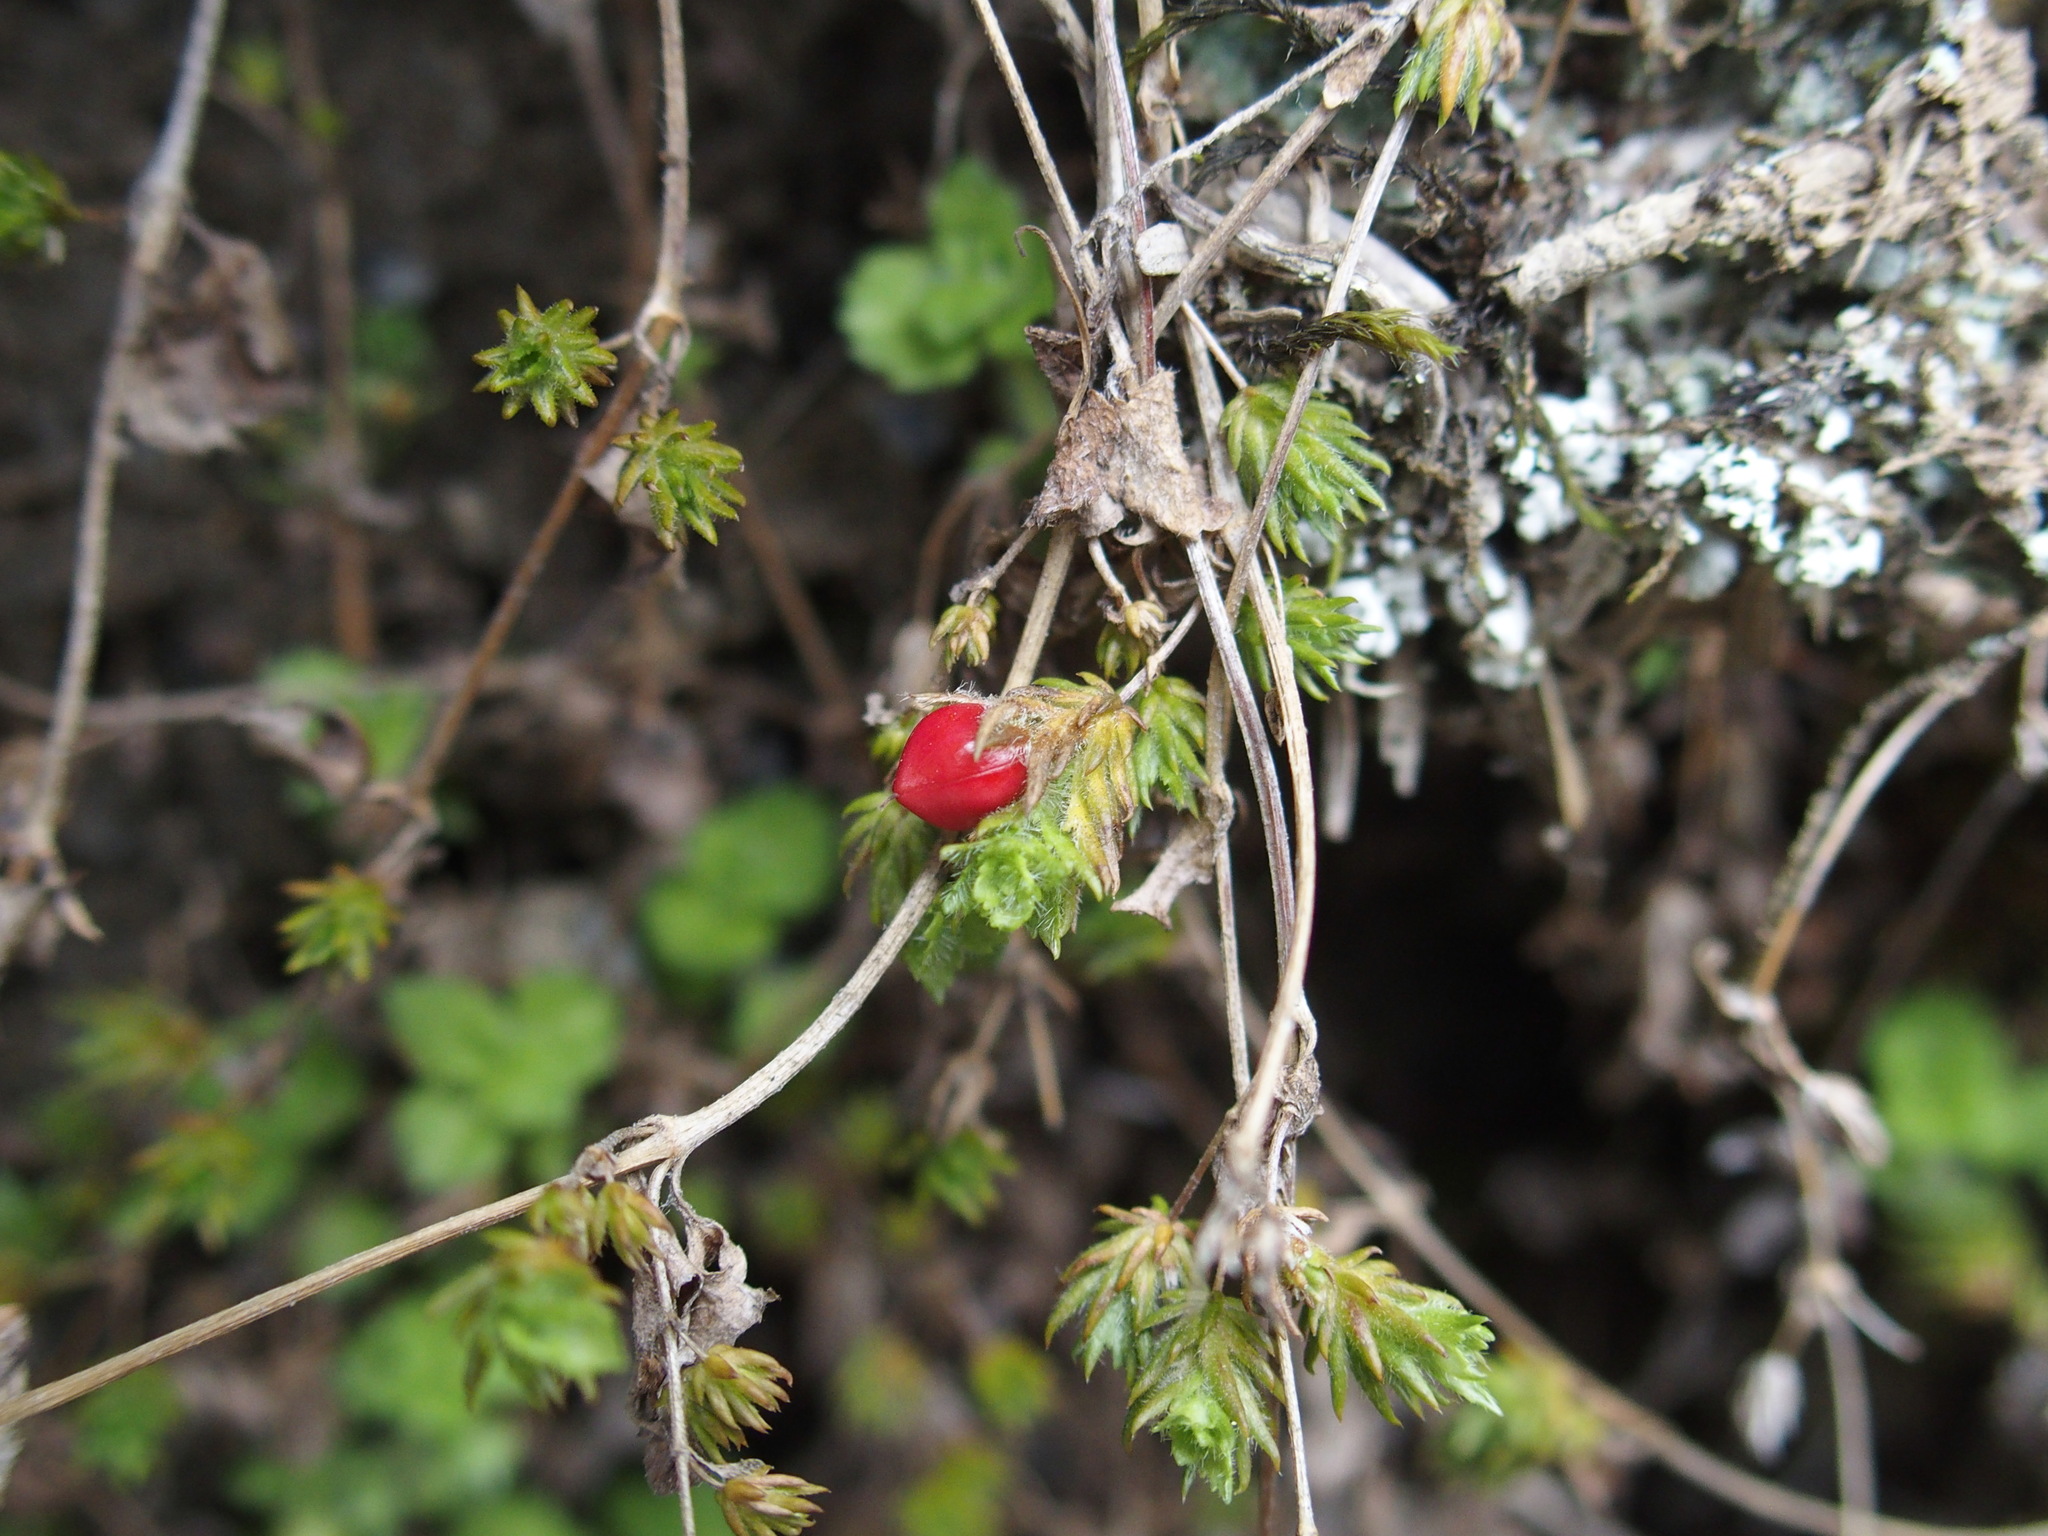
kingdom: Plantae
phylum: Tracheophyta
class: Magnoliopsida
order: Lamiales
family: Plantaginaceae
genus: Hemiphragma
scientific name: Hemiphragma heterophyllum
